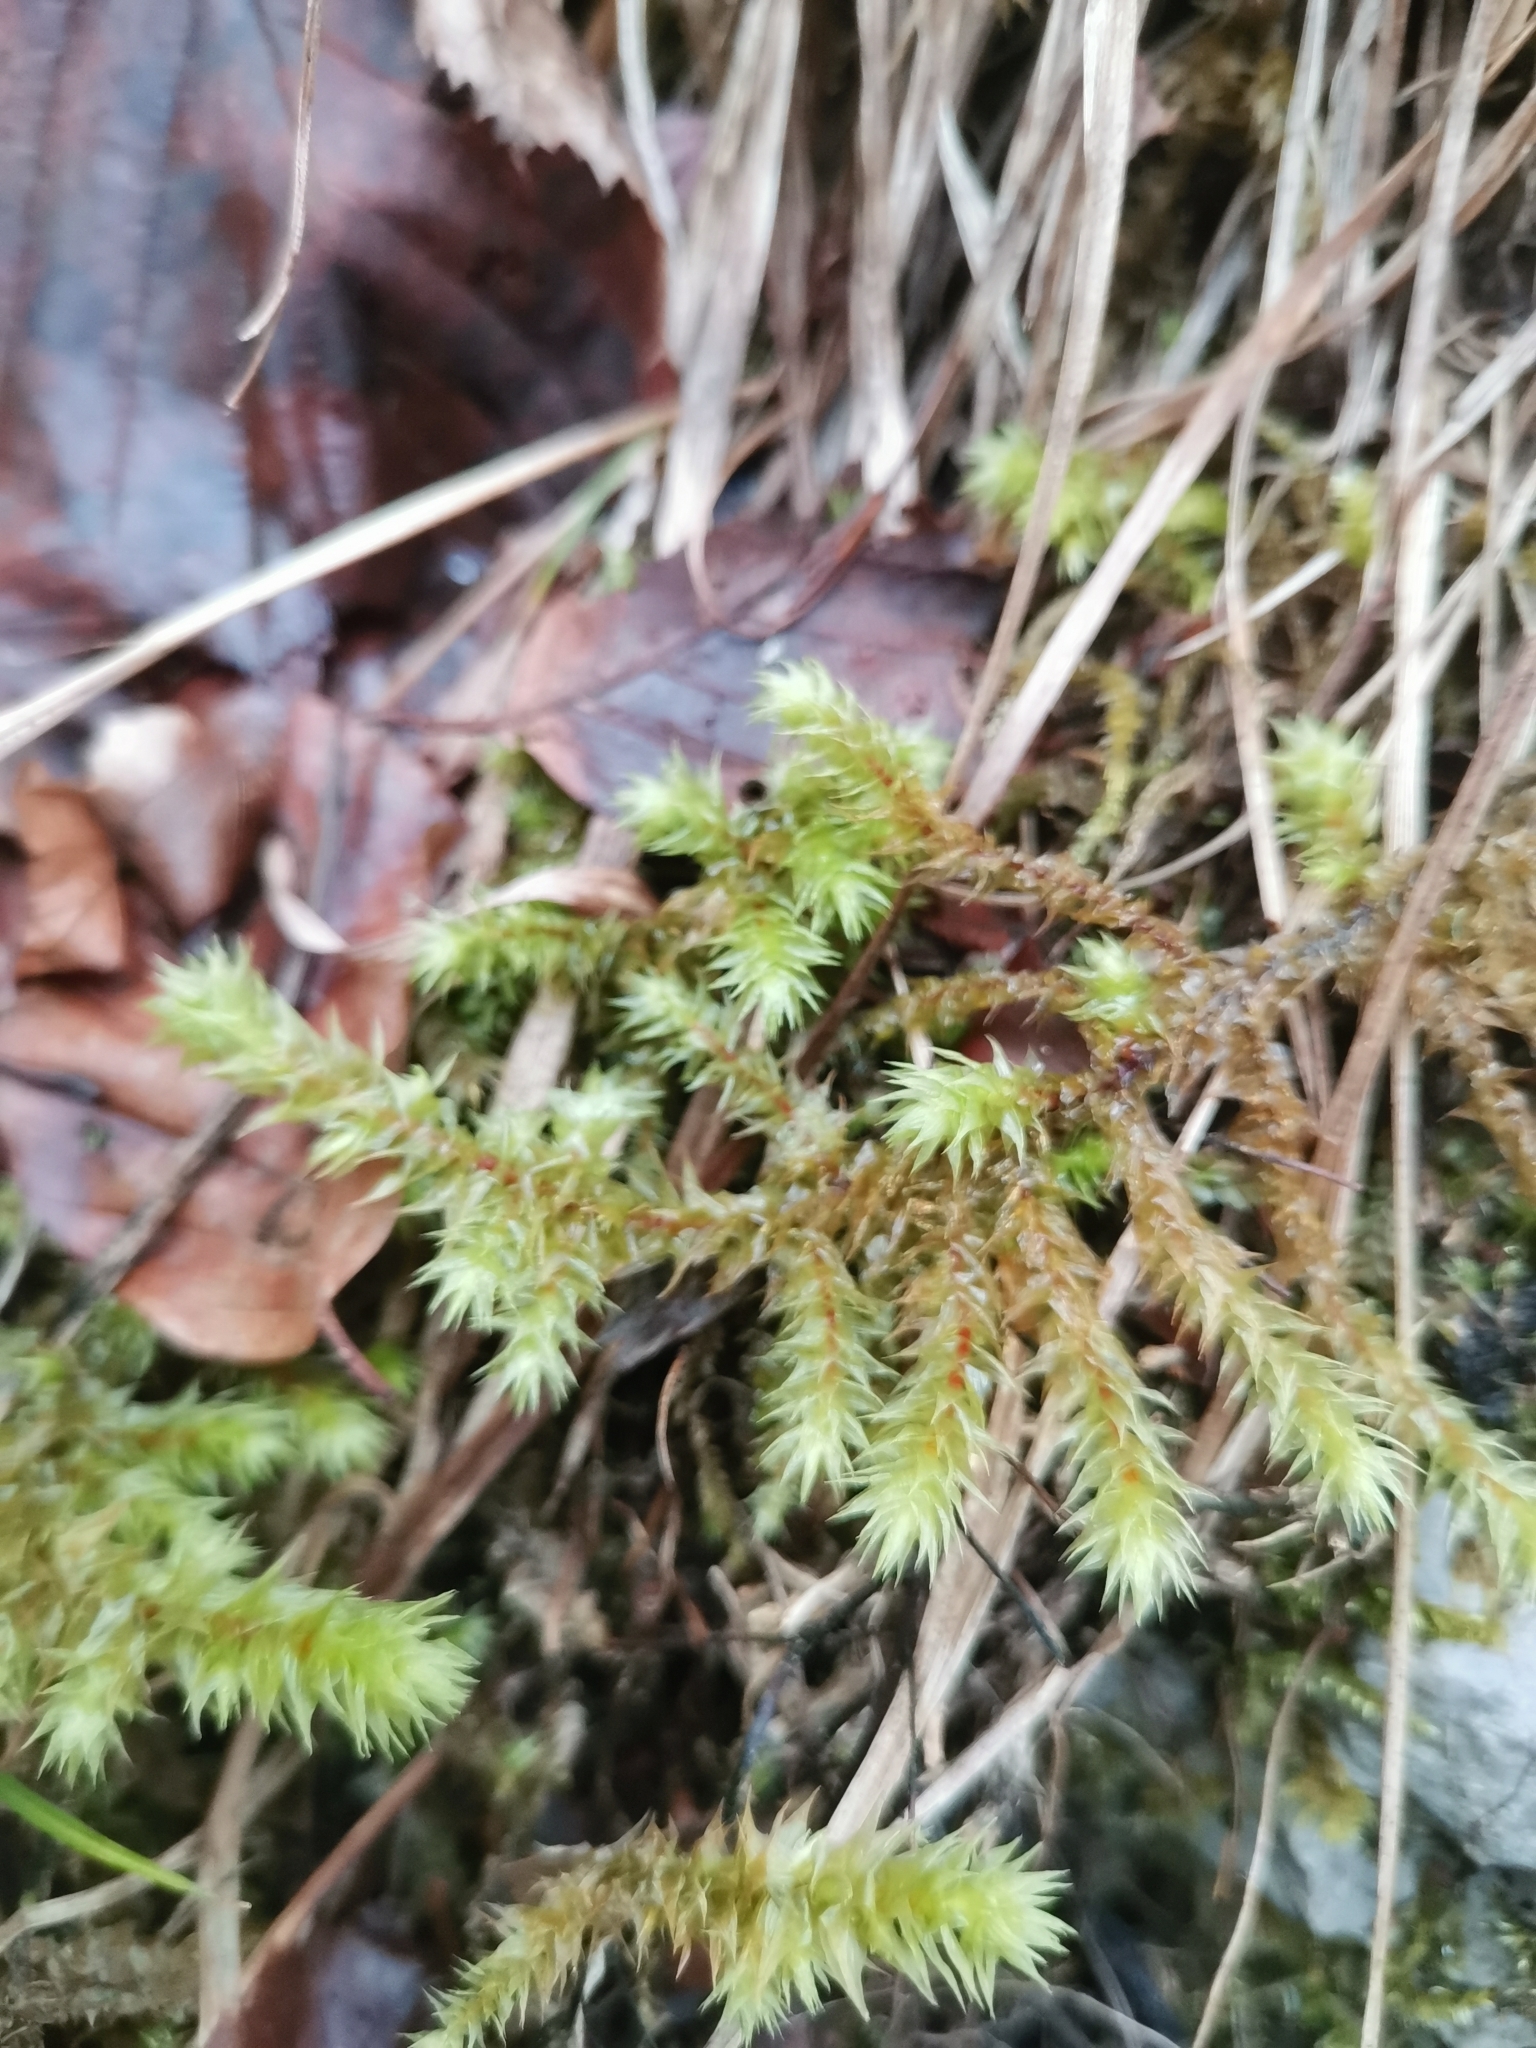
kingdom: Plantae
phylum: Bryophyta
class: Bryopsida
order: Hypnales
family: Hylocomiaceae
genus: Hylocomiadelphus
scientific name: Hylocomiadelphus triquetrus
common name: Rough goose neck moss
